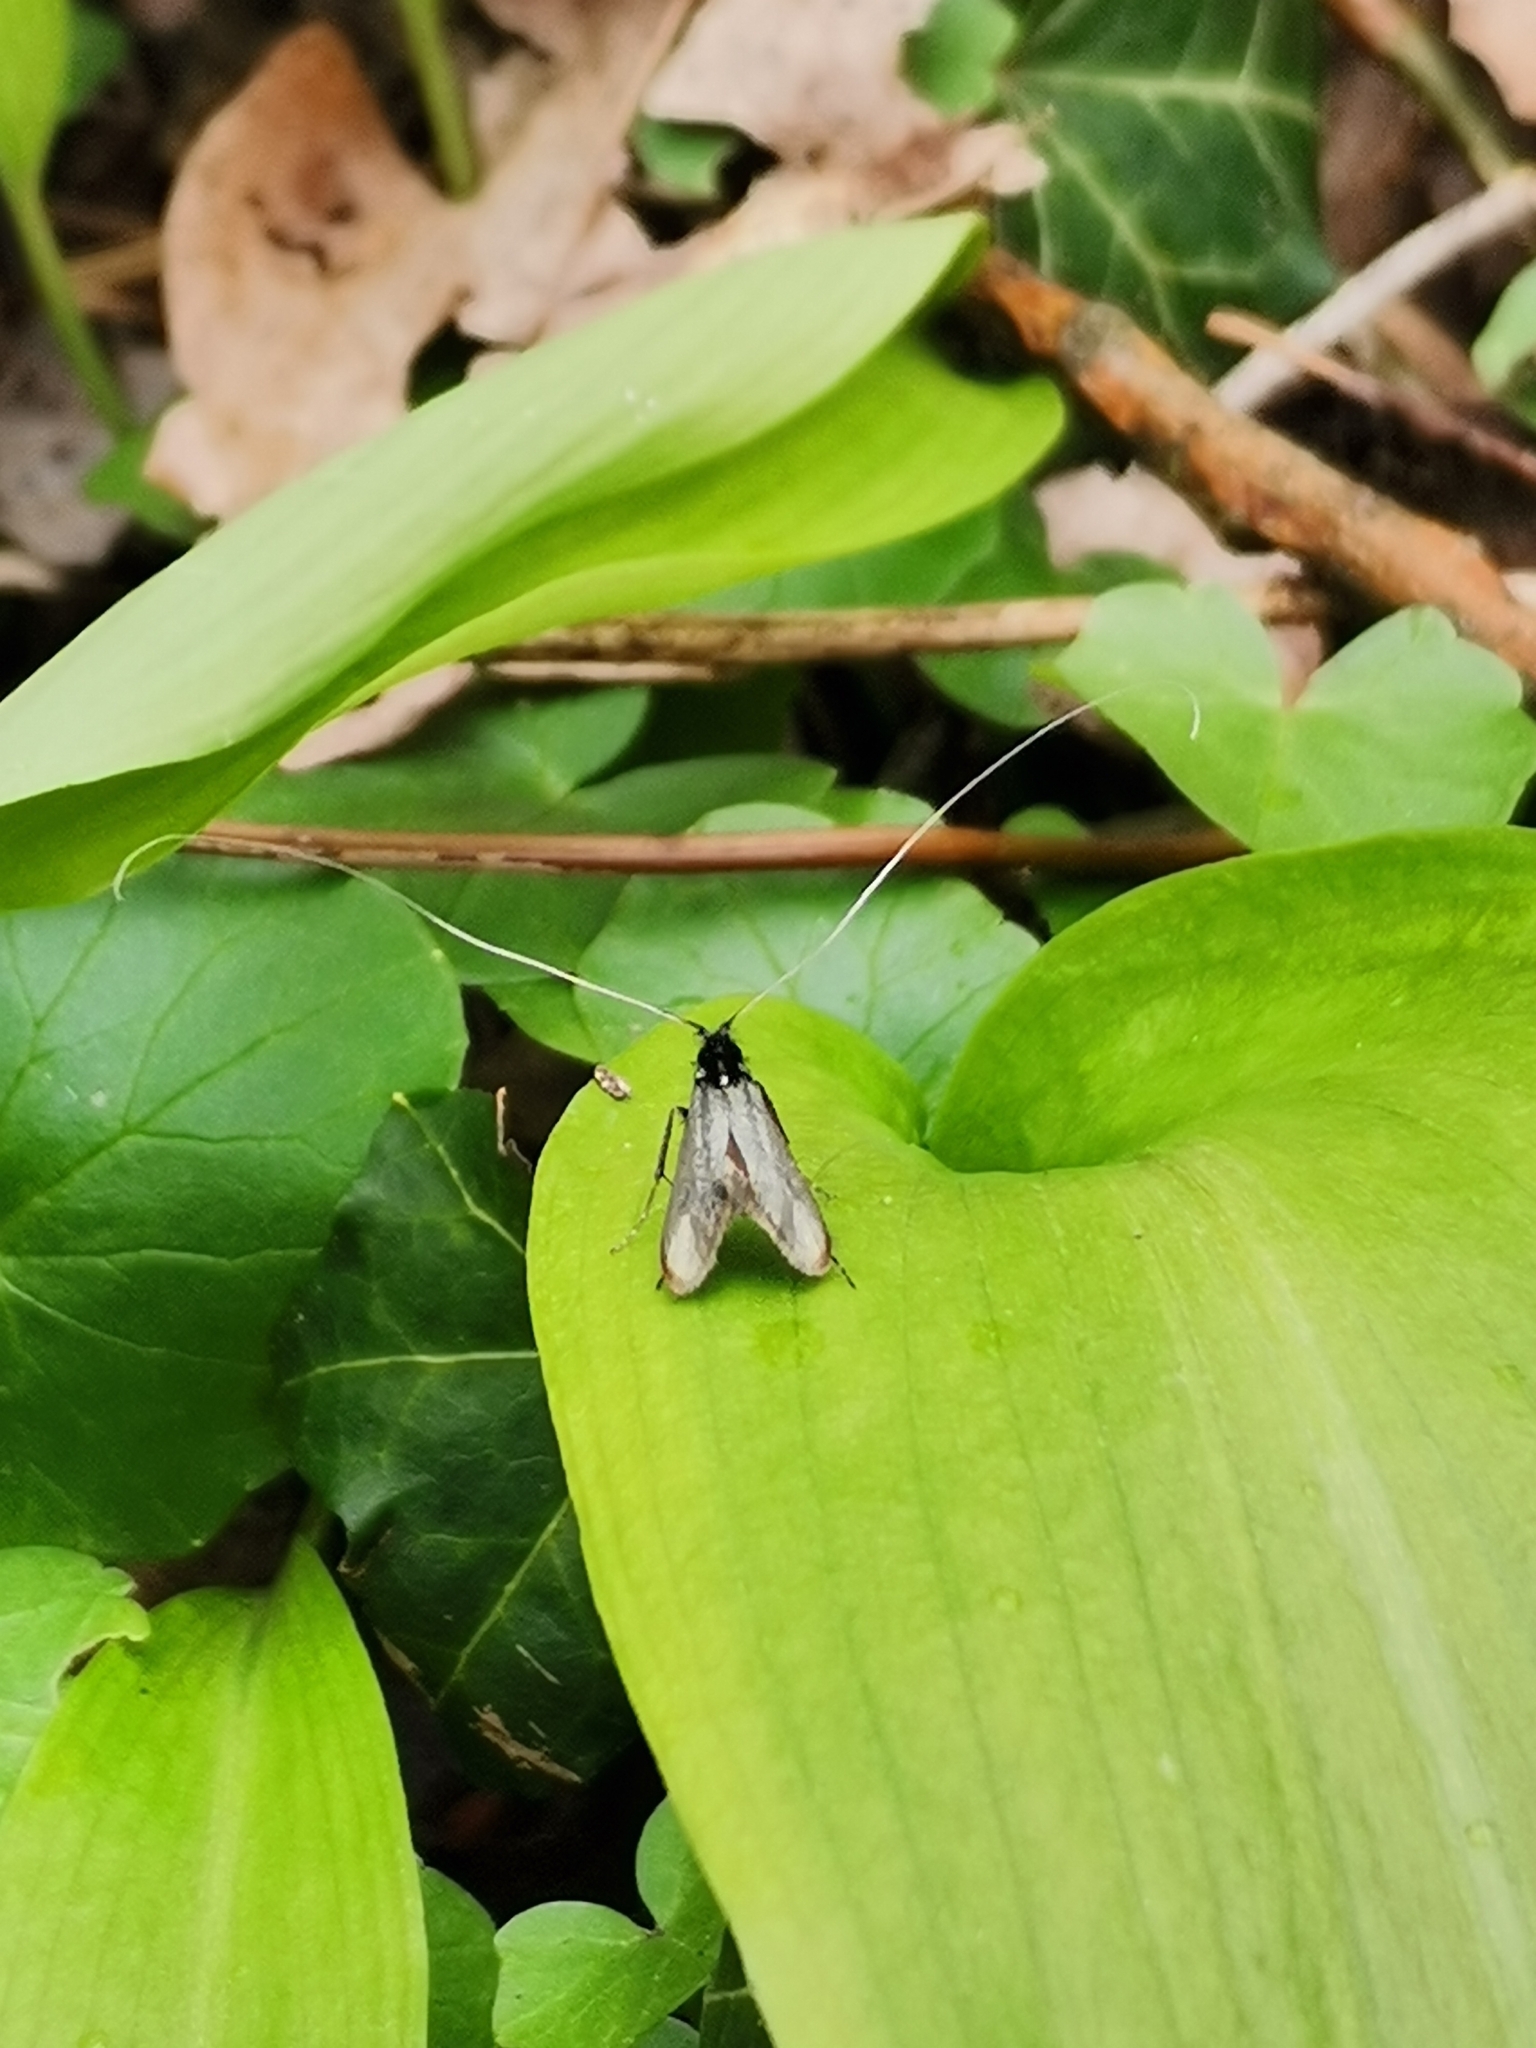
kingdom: Animalia
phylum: Arthropoda
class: Insecta
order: Lepidoptera
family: Adelidae
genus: Adela
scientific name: Adela viridella
